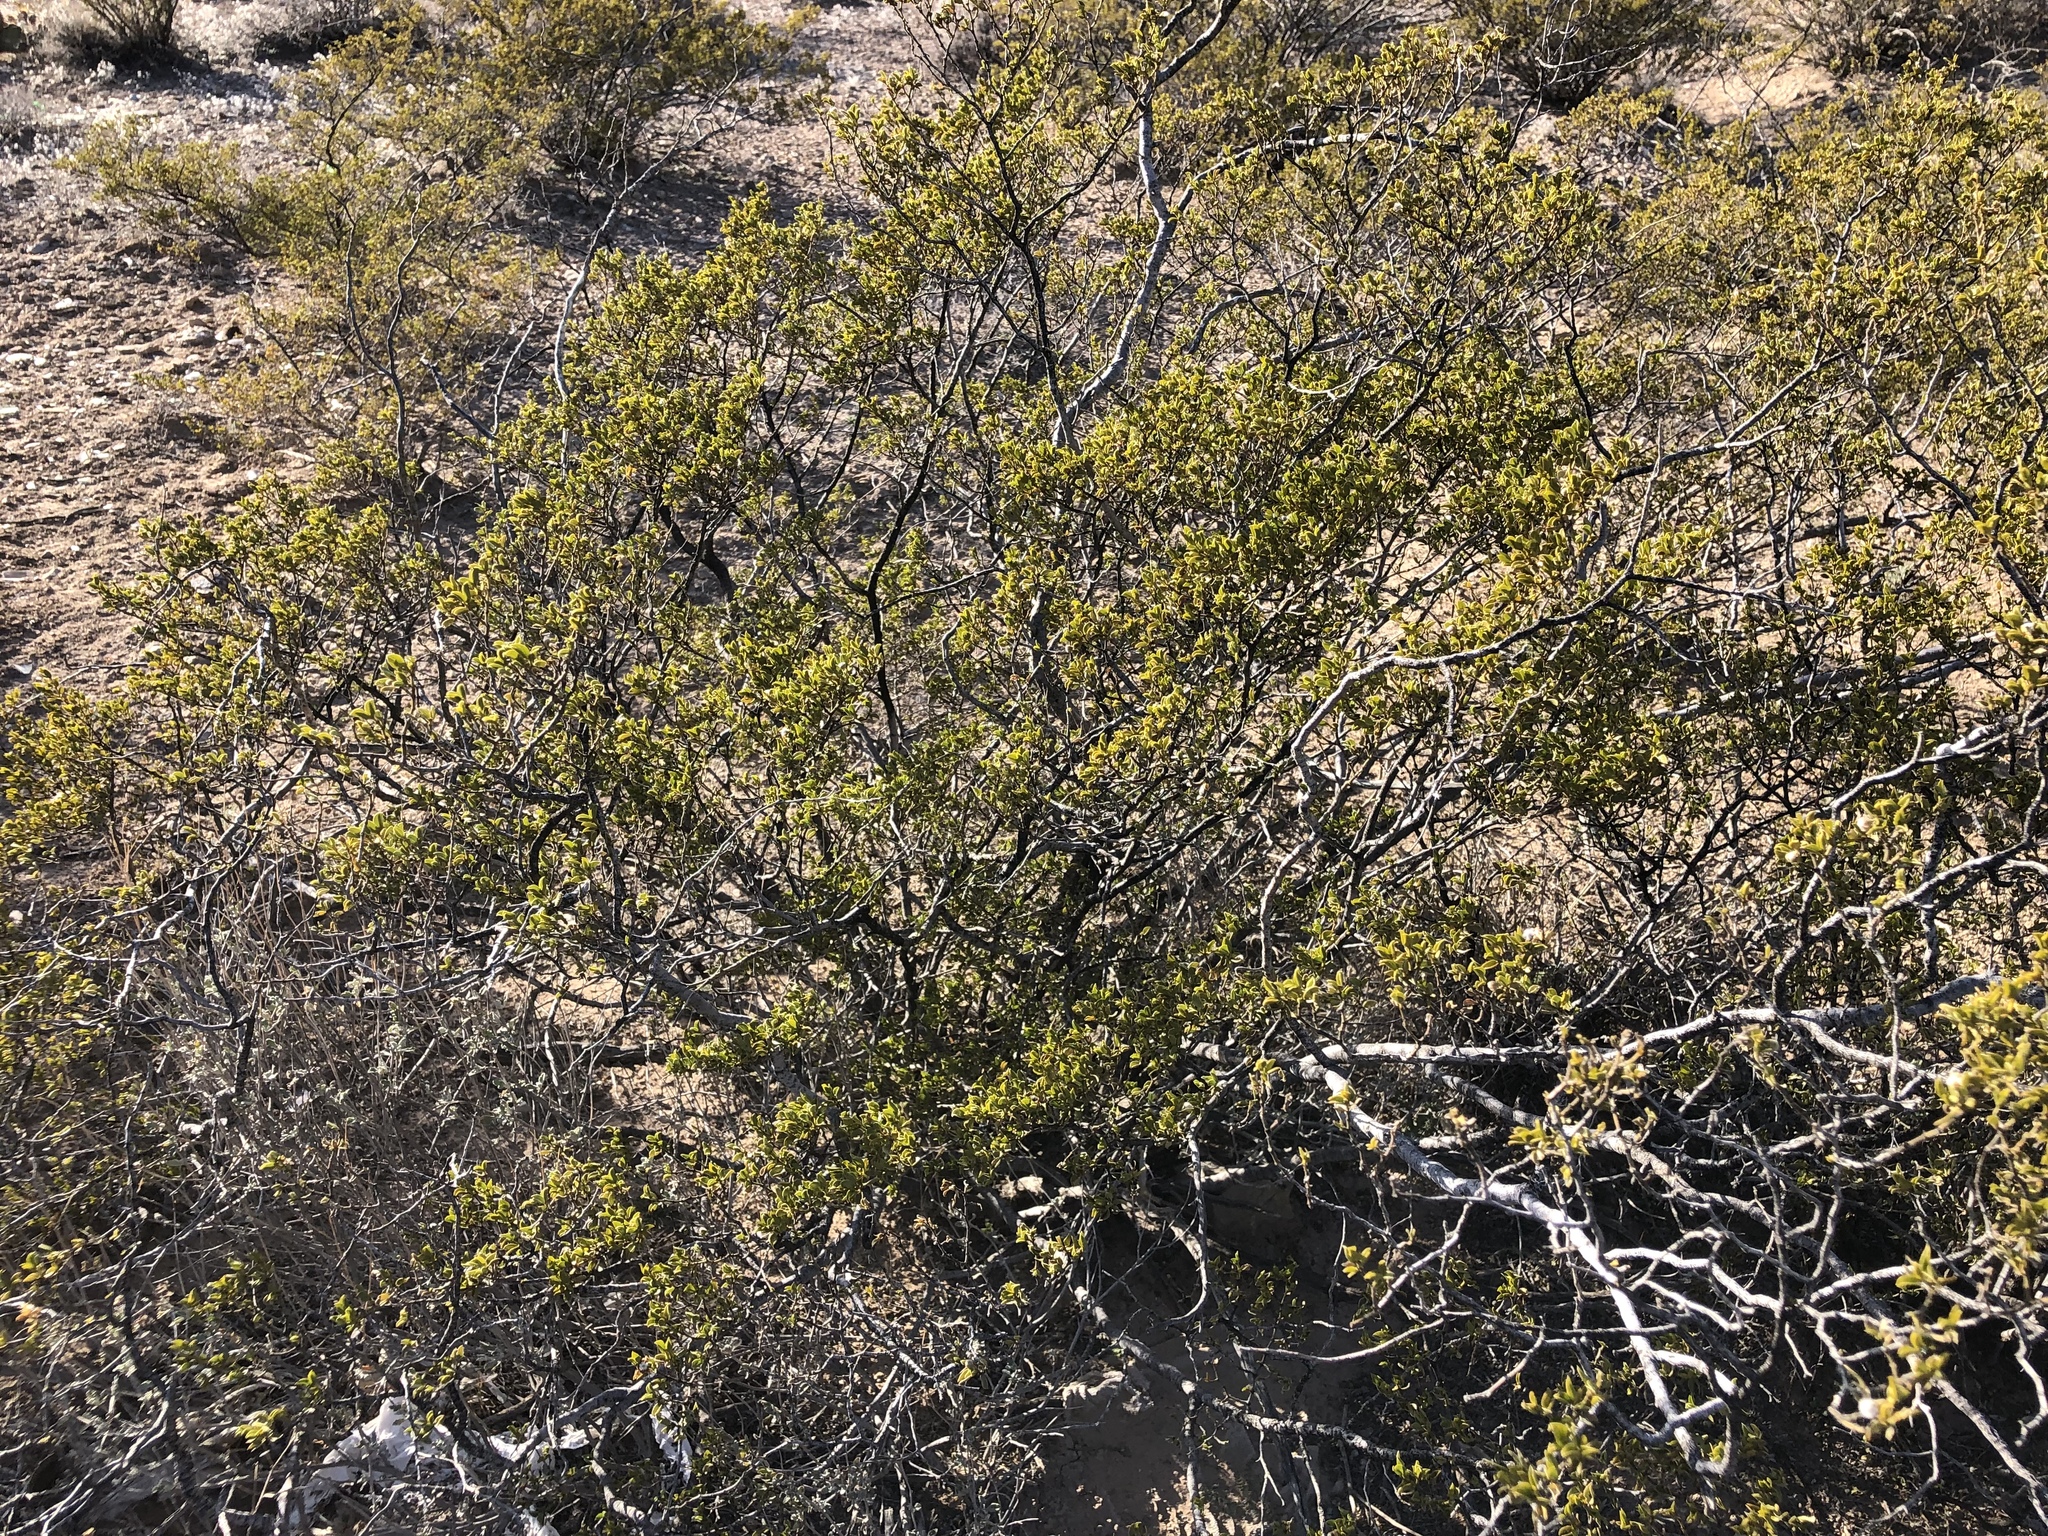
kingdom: Plantae
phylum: Tracheophyta
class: Magnoliopsida
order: Zygophyllales
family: Zygophyllaceae
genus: Larrea
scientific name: Larrea tridentata
